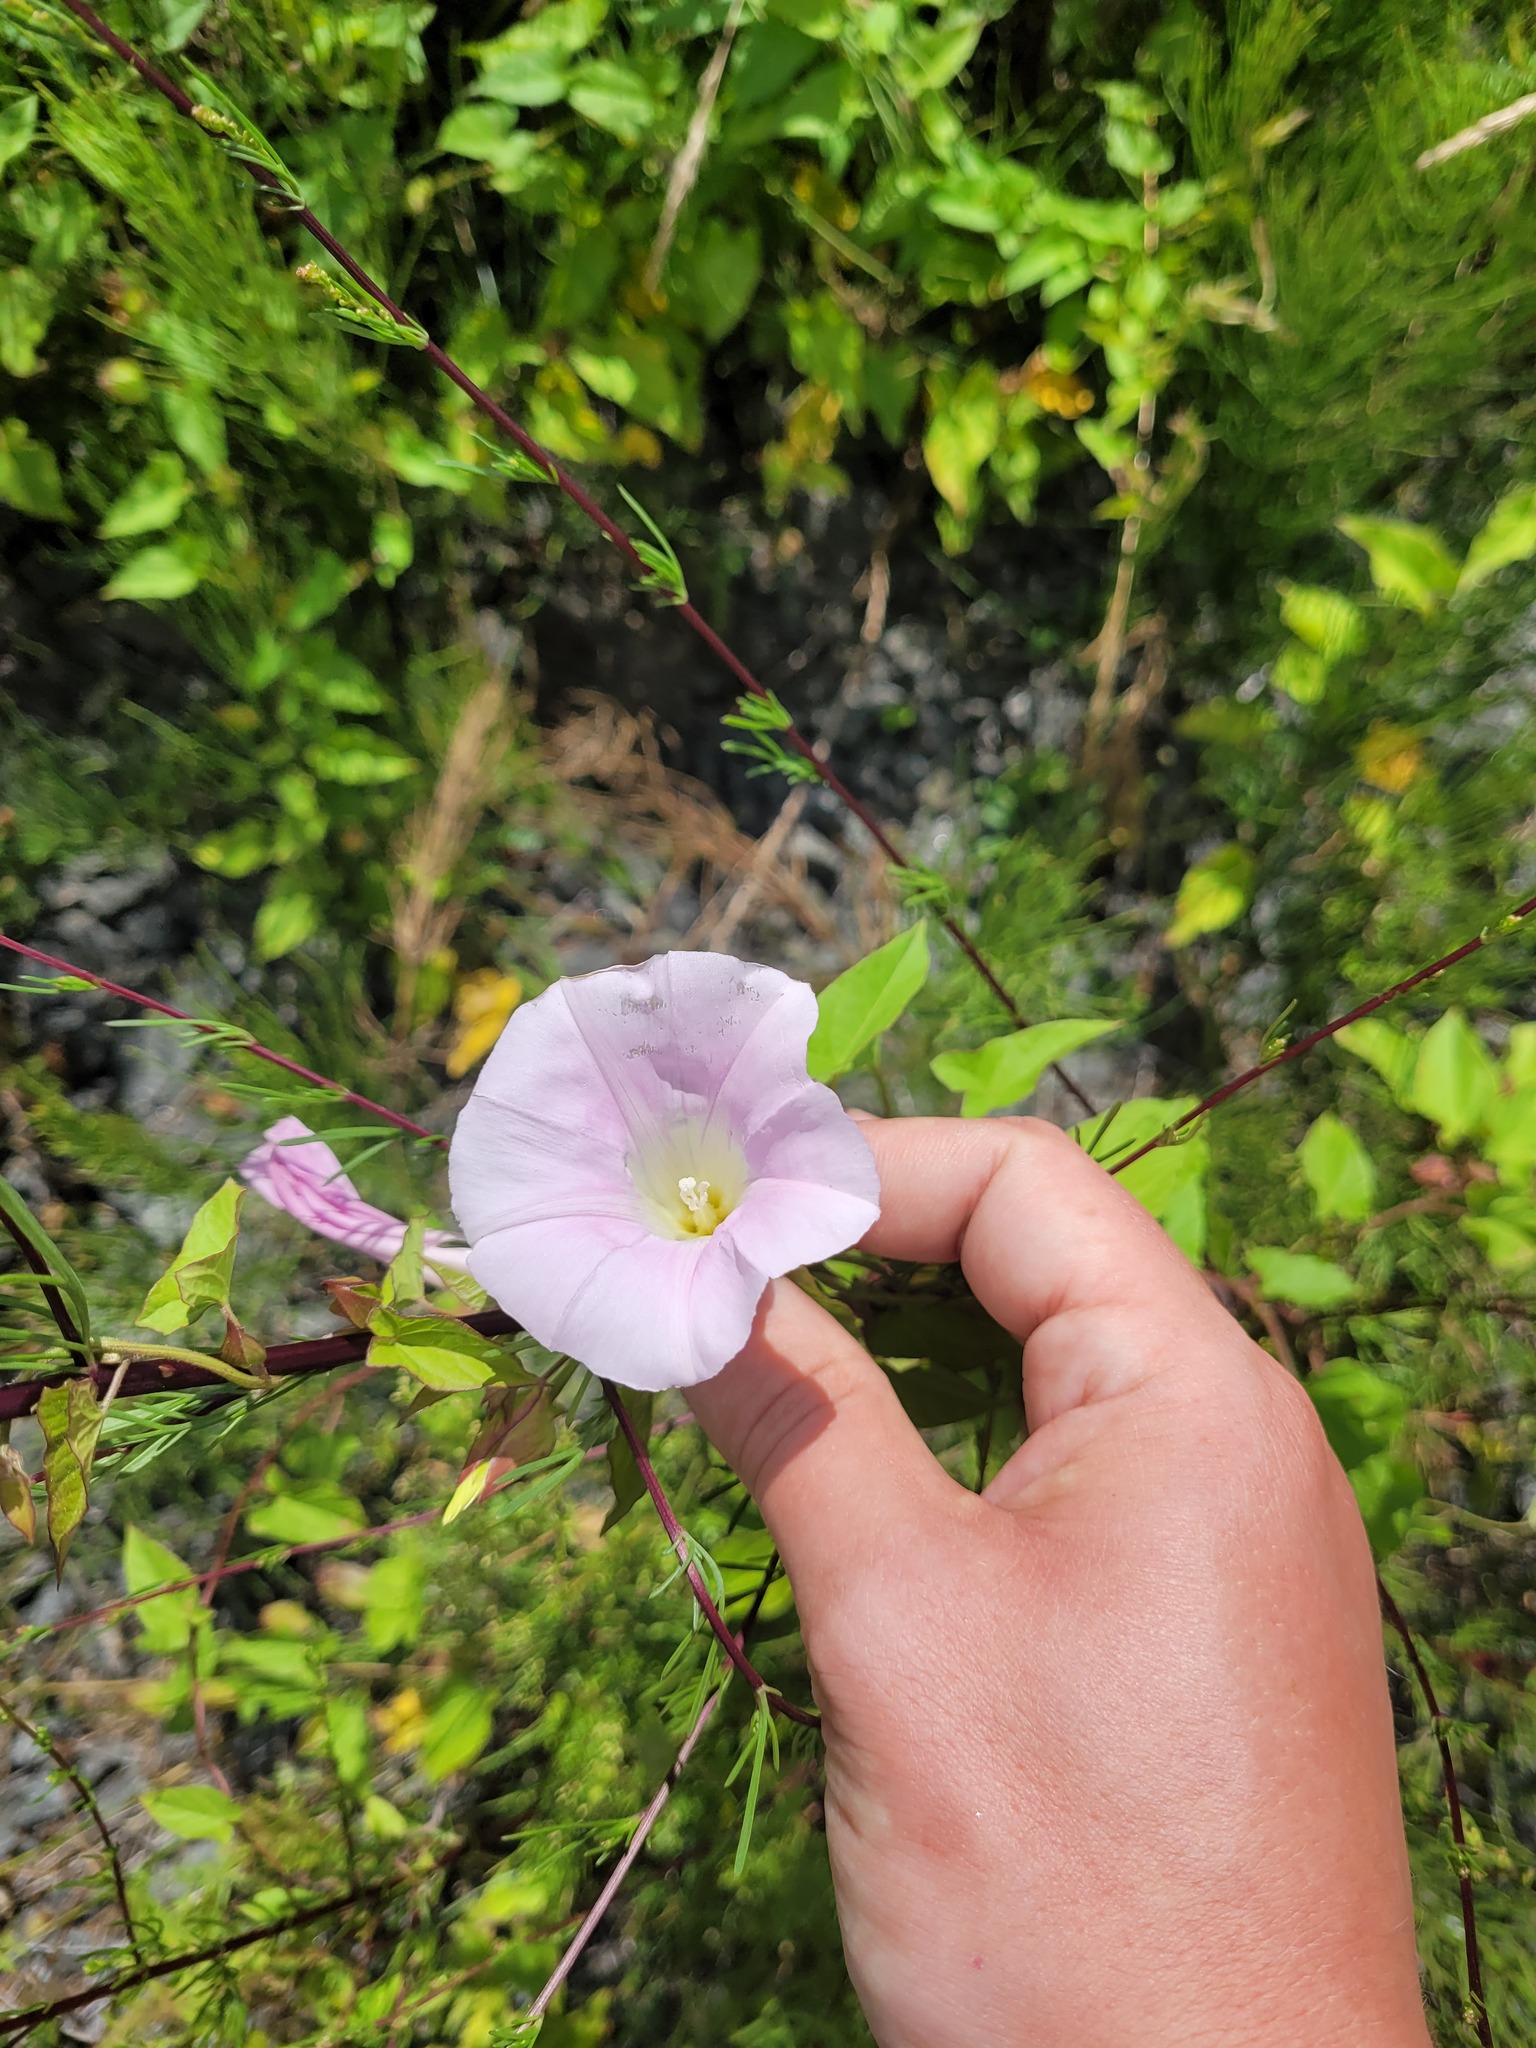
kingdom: Plantae
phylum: Tracheophyta
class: Magnoliopsida
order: Solanales
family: Convolvulaceae
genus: Calystegia
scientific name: Calystegia sepium
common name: Hedge bindweed
